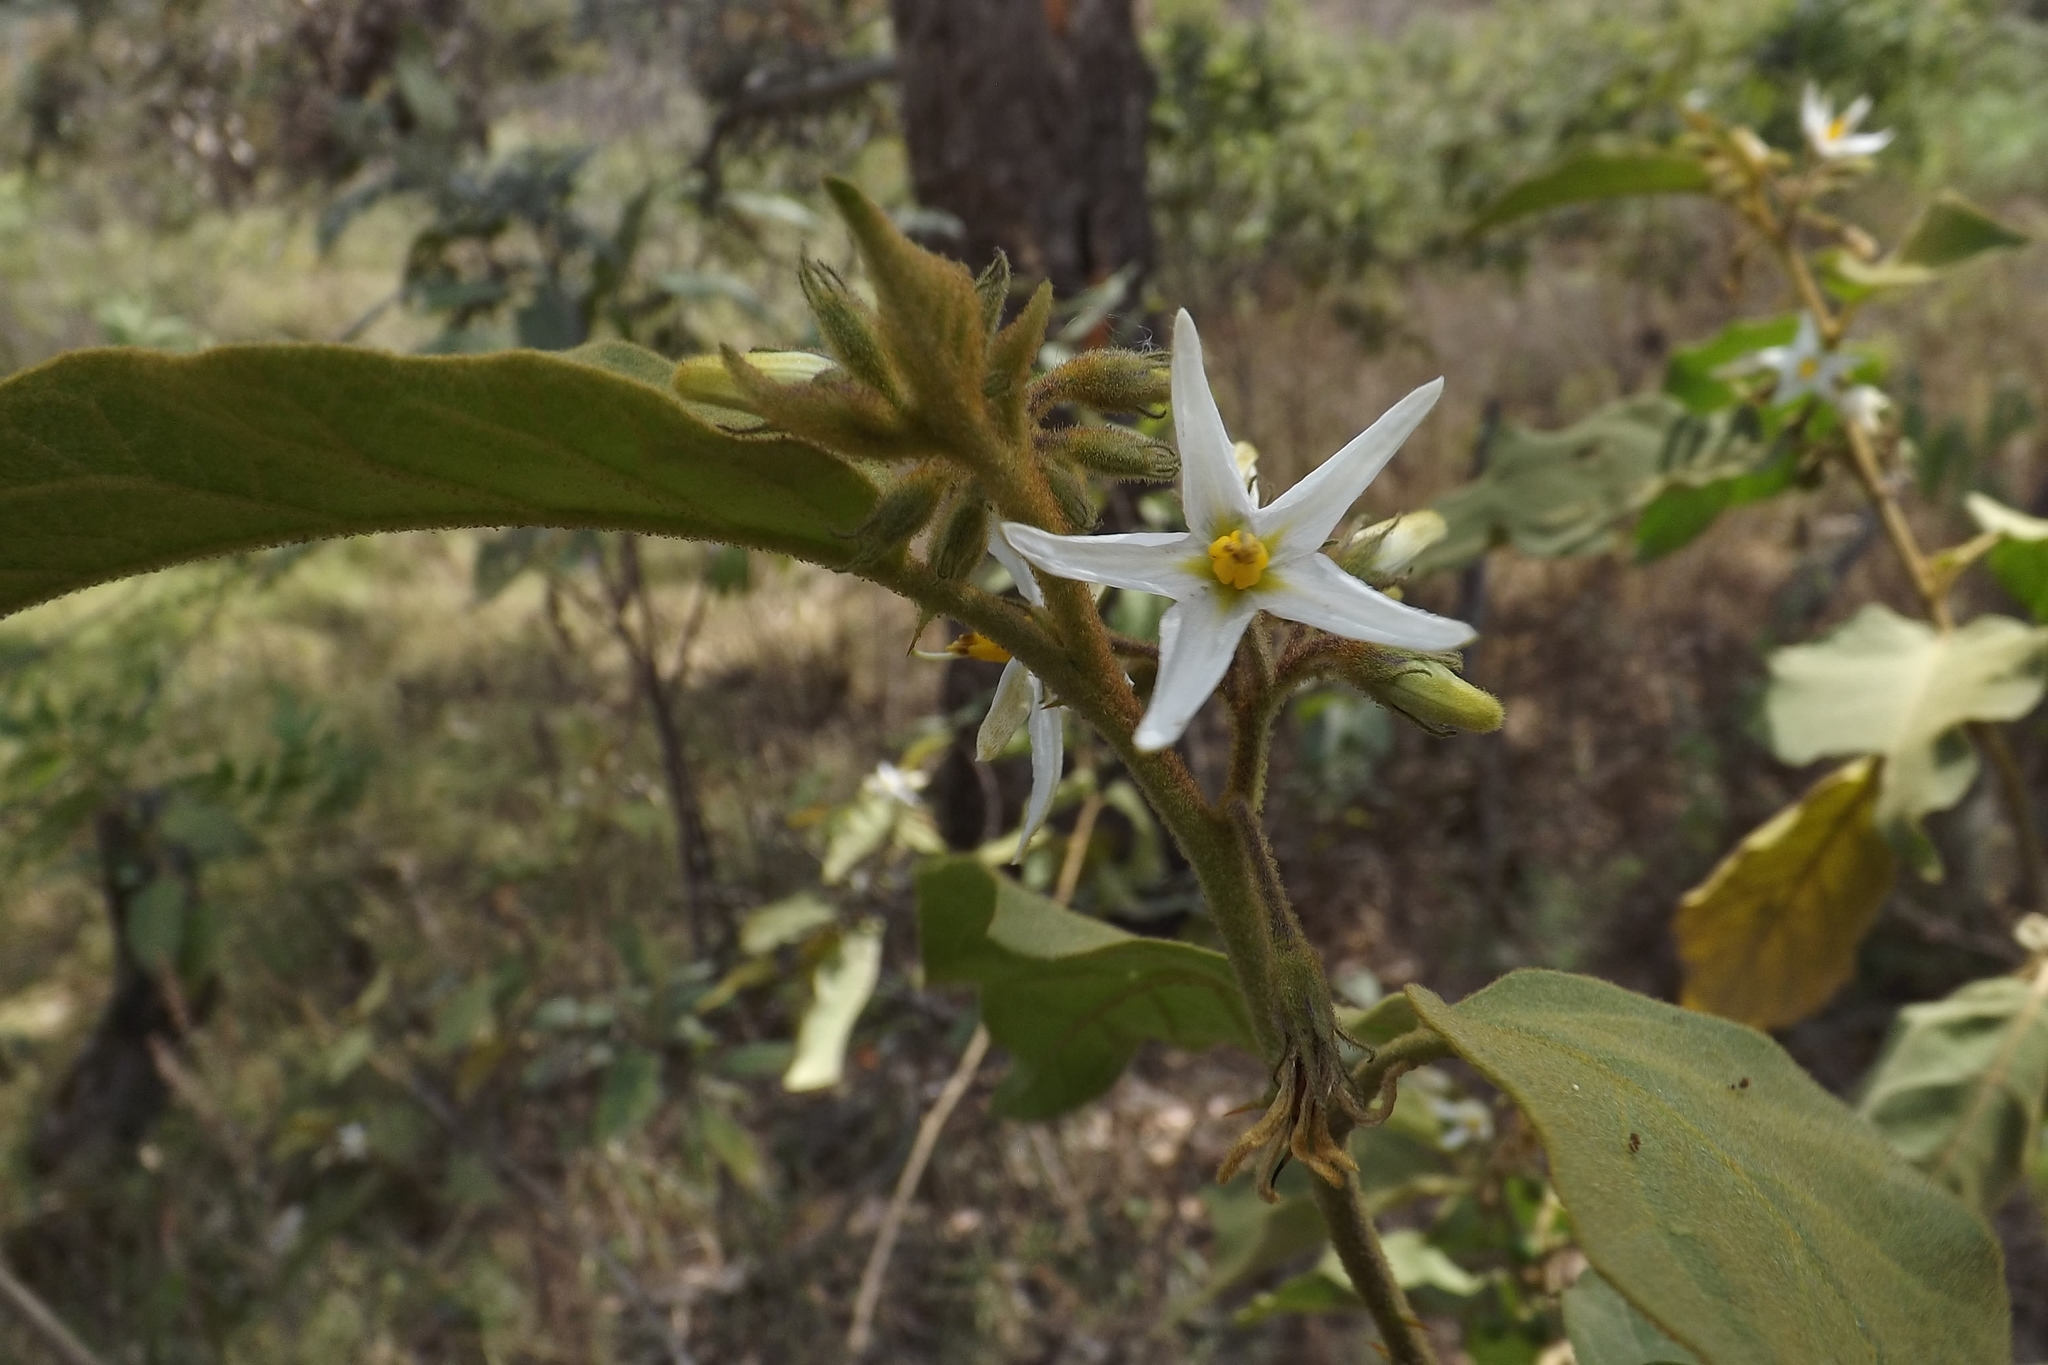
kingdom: Plantae
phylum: Tracheophyta
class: Magnoliopsida
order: Solanales
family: Solanaceae
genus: Solanum
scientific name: Solanum ferrugineum
